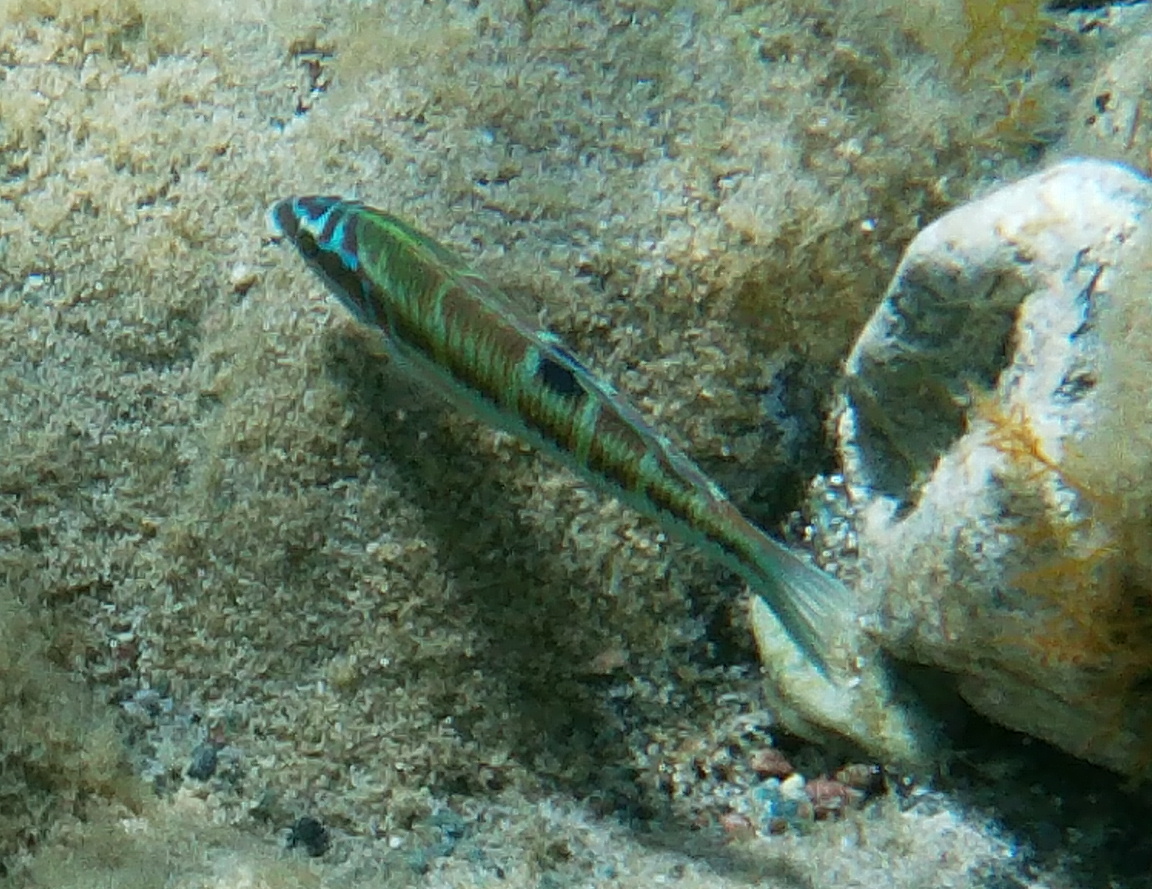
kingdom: Animalia
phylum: Chordata
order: Perciformes
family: Labridae
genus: Thalassoma
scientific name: Thalassoma pavo
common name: Ornate wrasse
